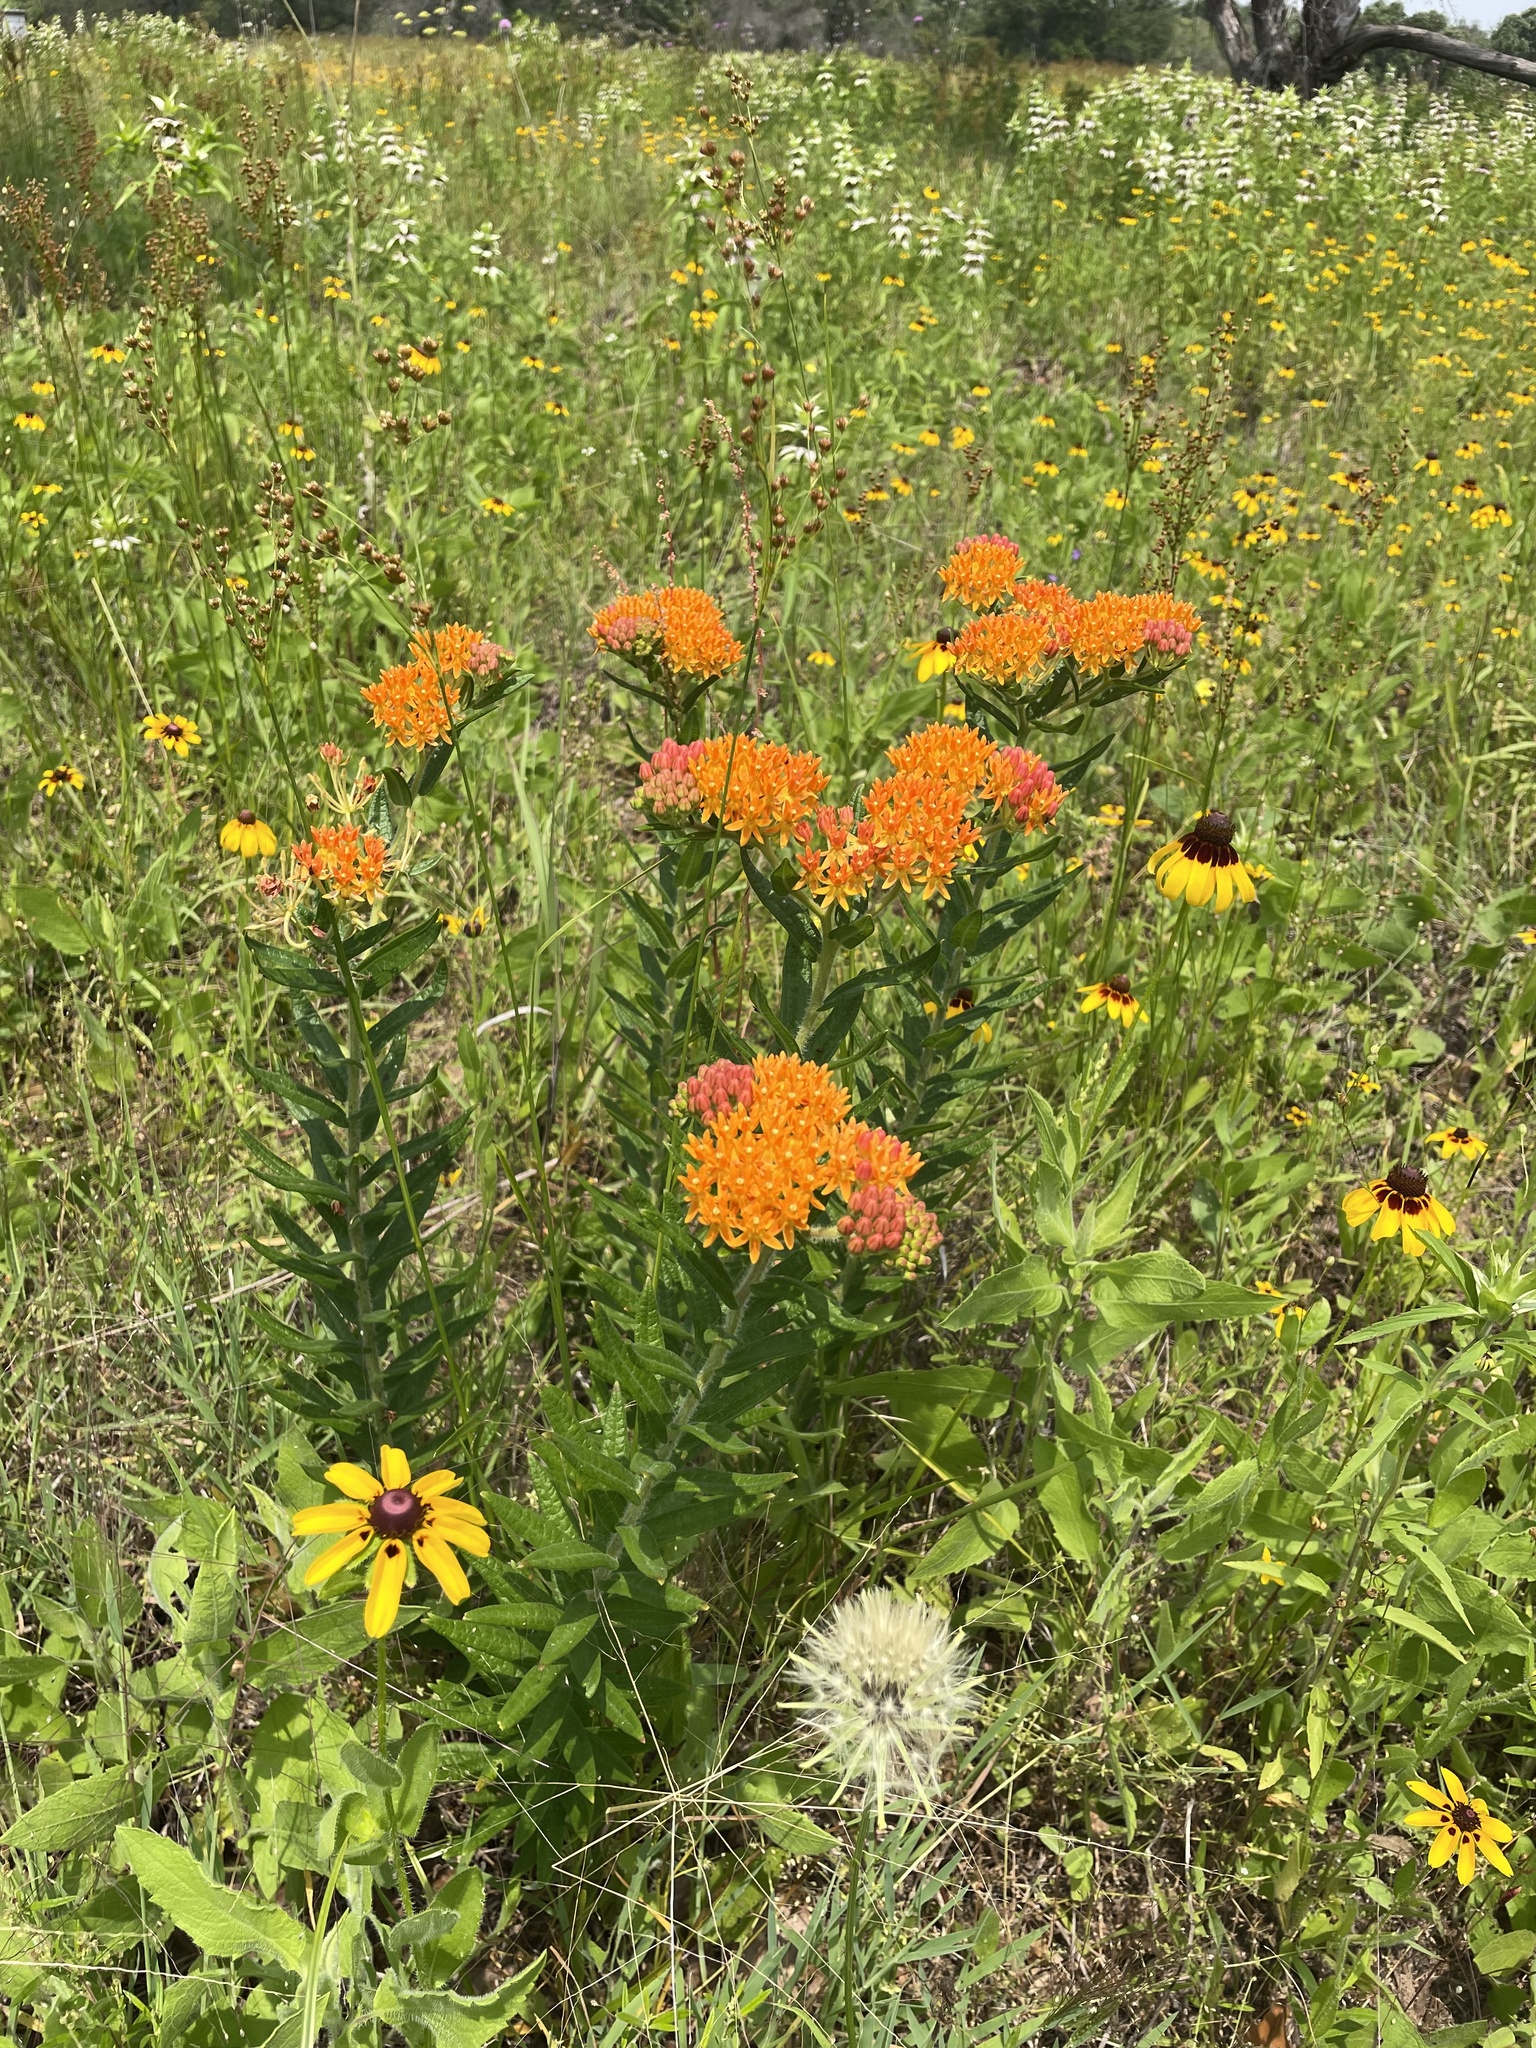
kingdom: Plantae
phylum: Tracheophyta
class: Magnoliopsida
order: Gentianales
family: Apocynaceae
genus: Asclepias
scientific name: Asclepias tuberosa
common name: Butterfly milkweed
